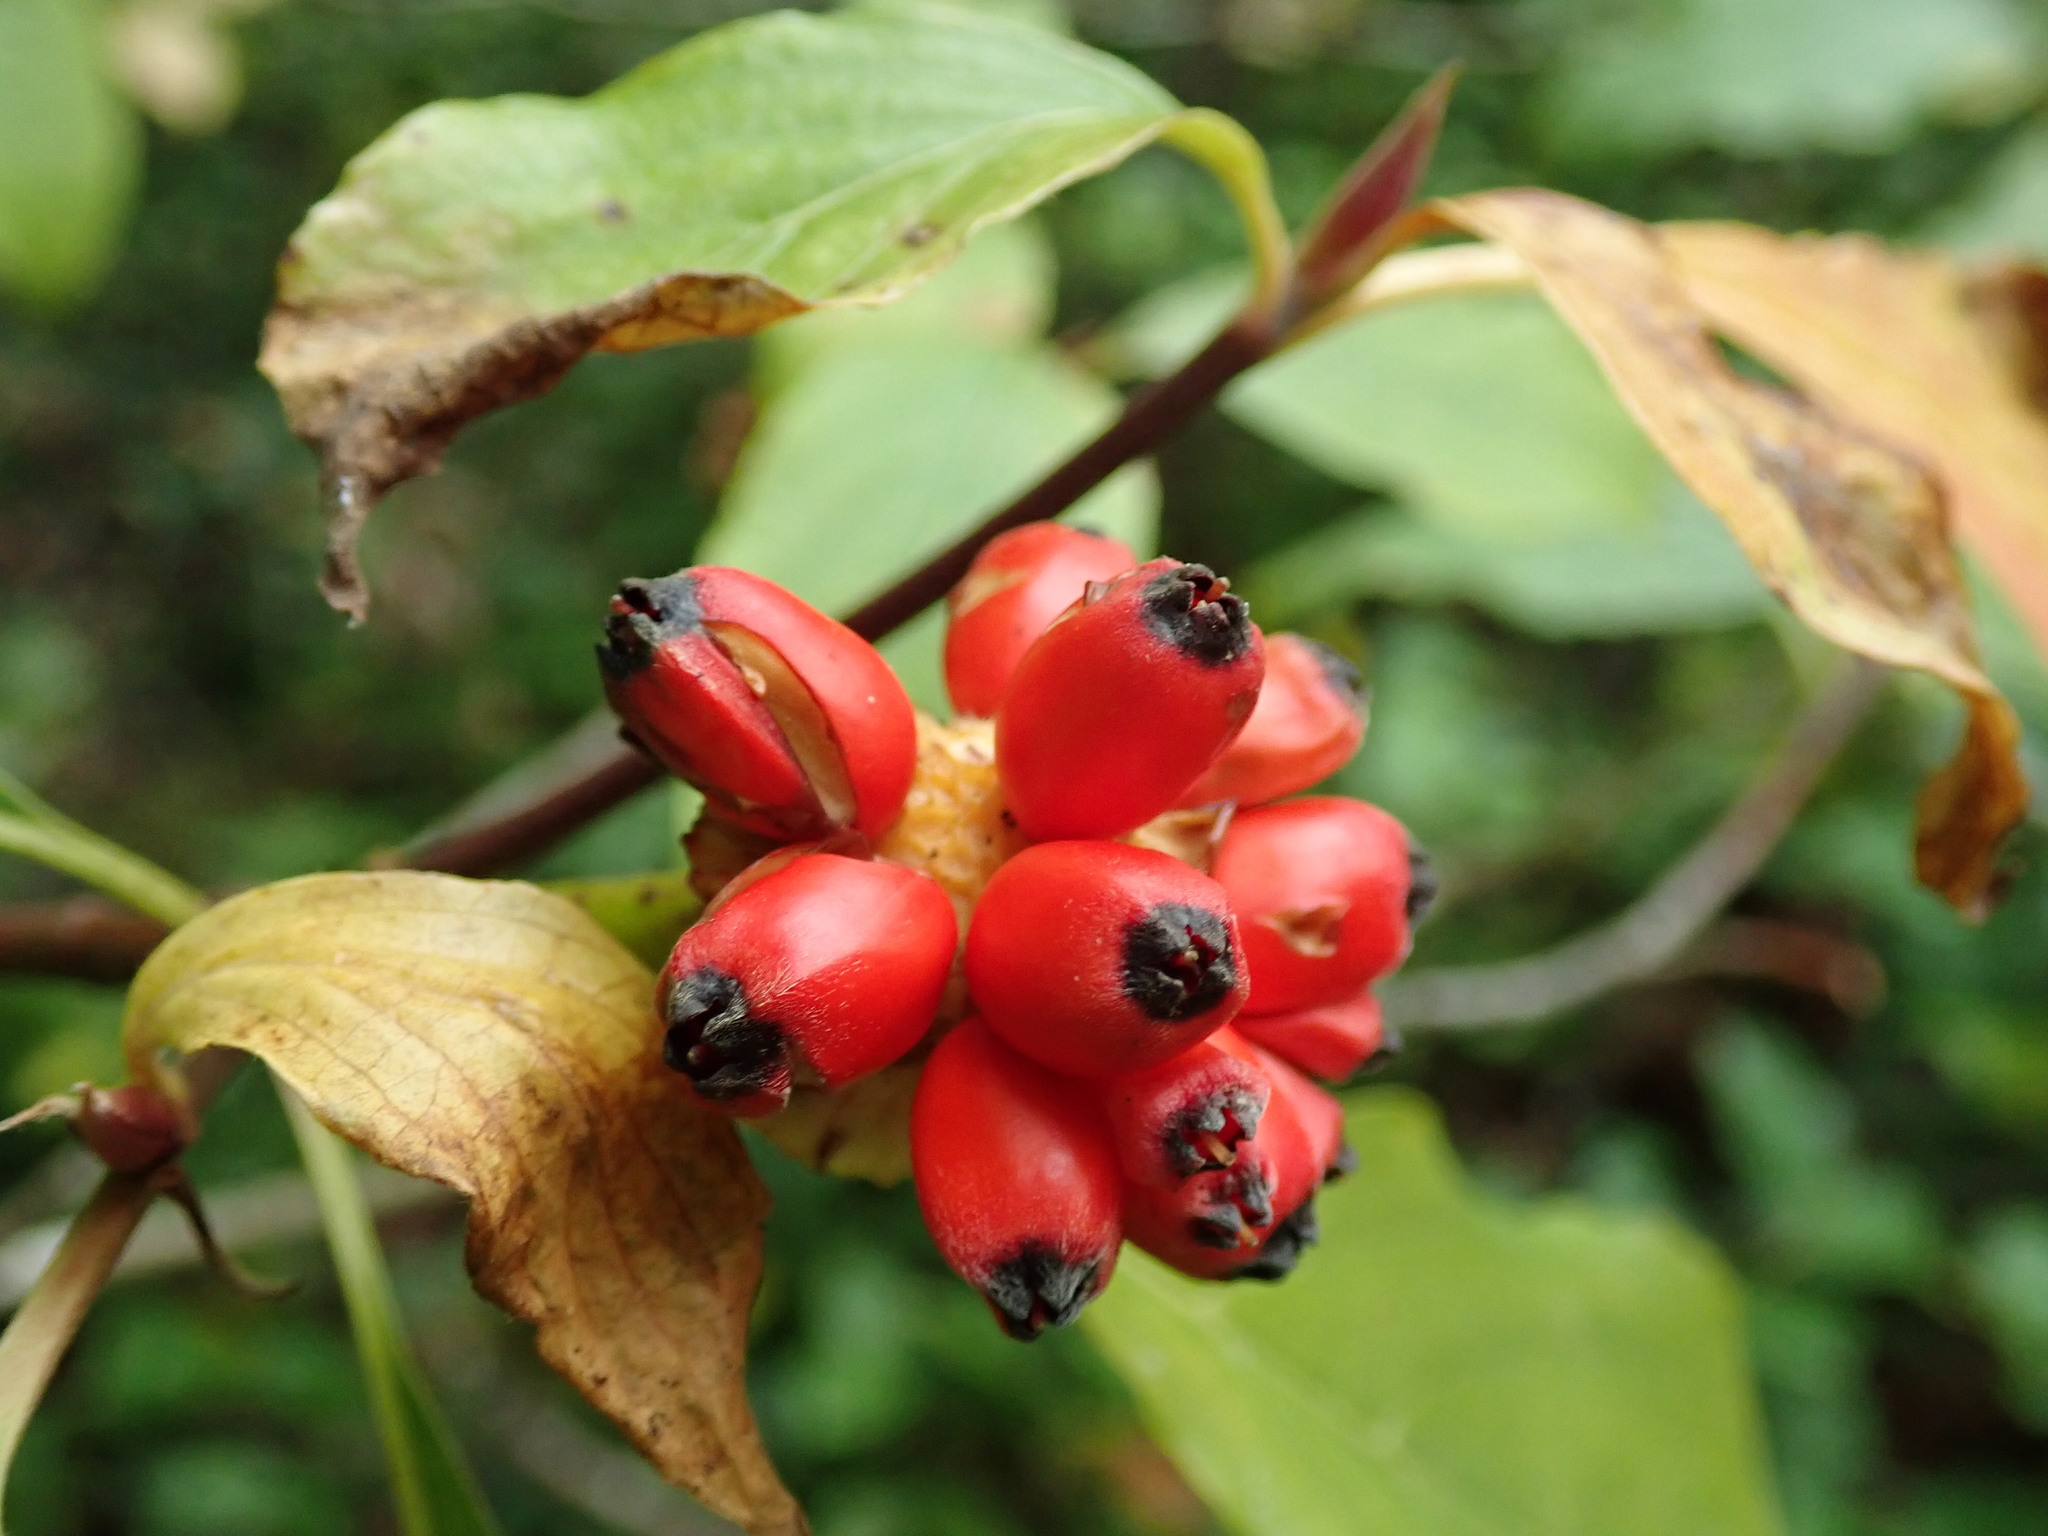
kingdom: Plantae
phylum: Tracheophyta
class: Magnoliopsida
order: Cornales
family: Cornaceae
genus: Cornus
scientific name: Cornus nuttallii
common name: Pacific dogwood
